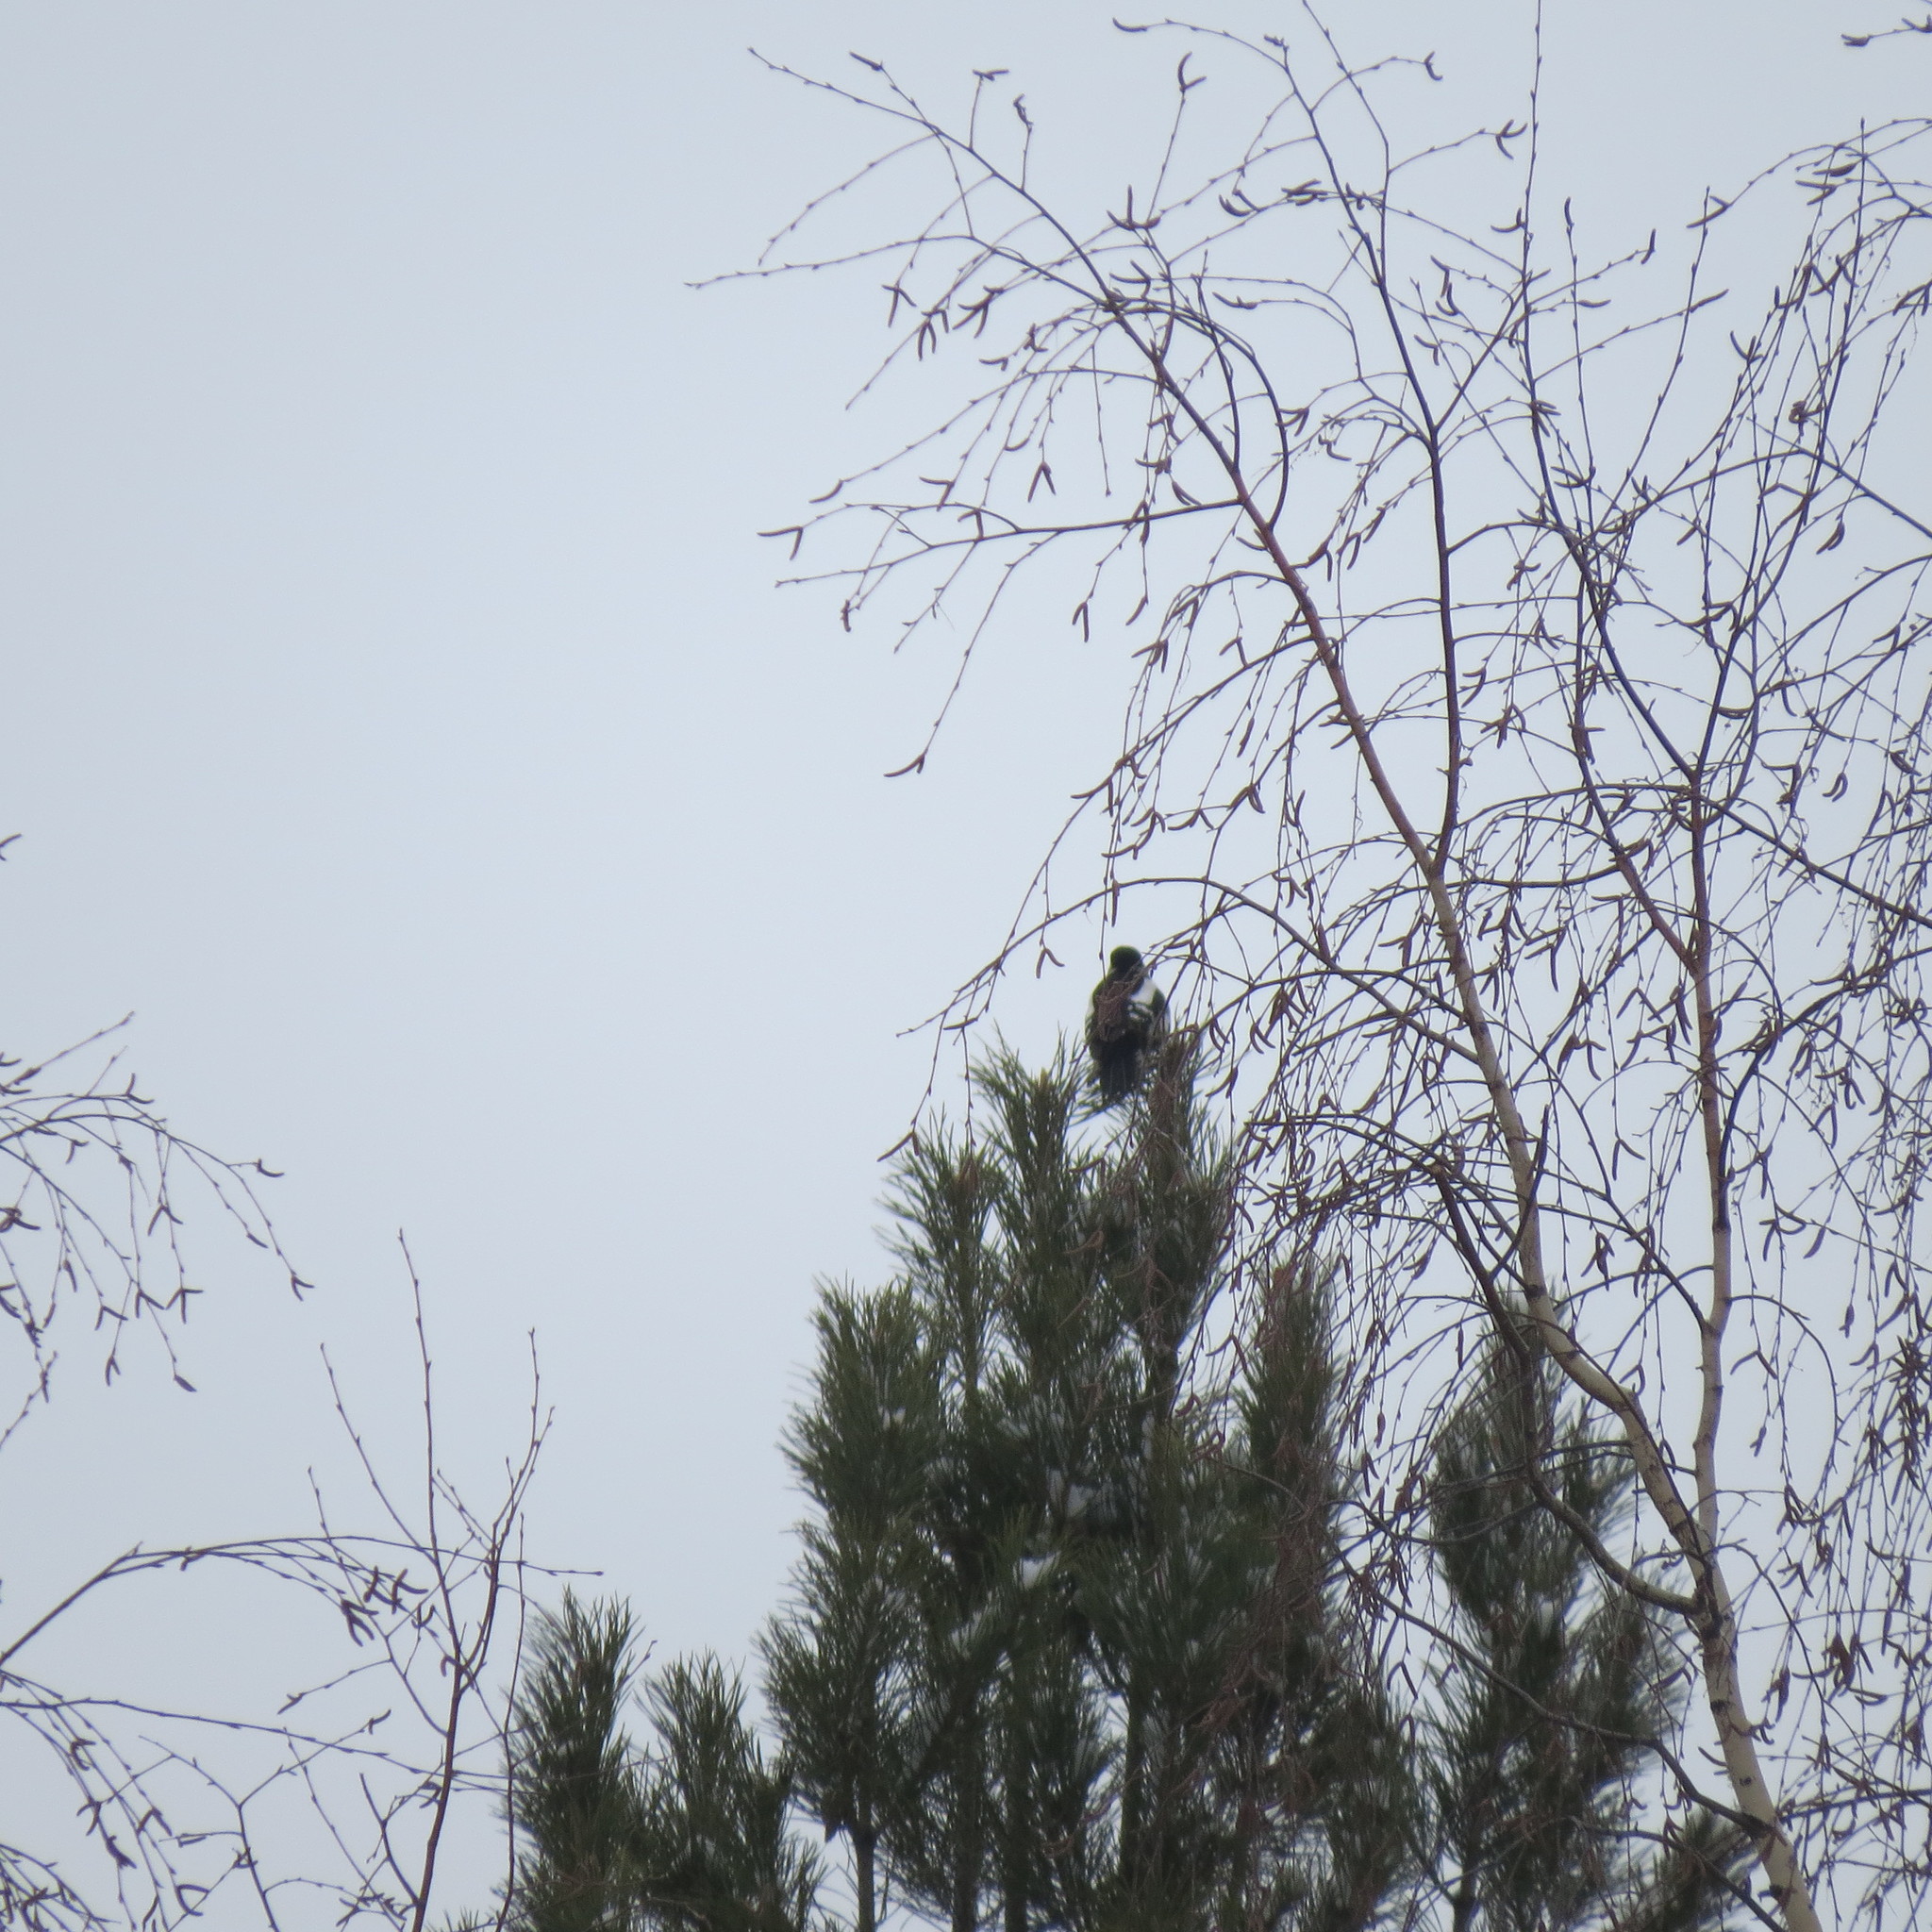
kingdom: Animalia
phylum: Chordata
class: Aves
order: Piciformes
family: Picidae
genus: Dendrocopos
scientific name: Dendrocopos major
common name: Great spotted woodpecker
